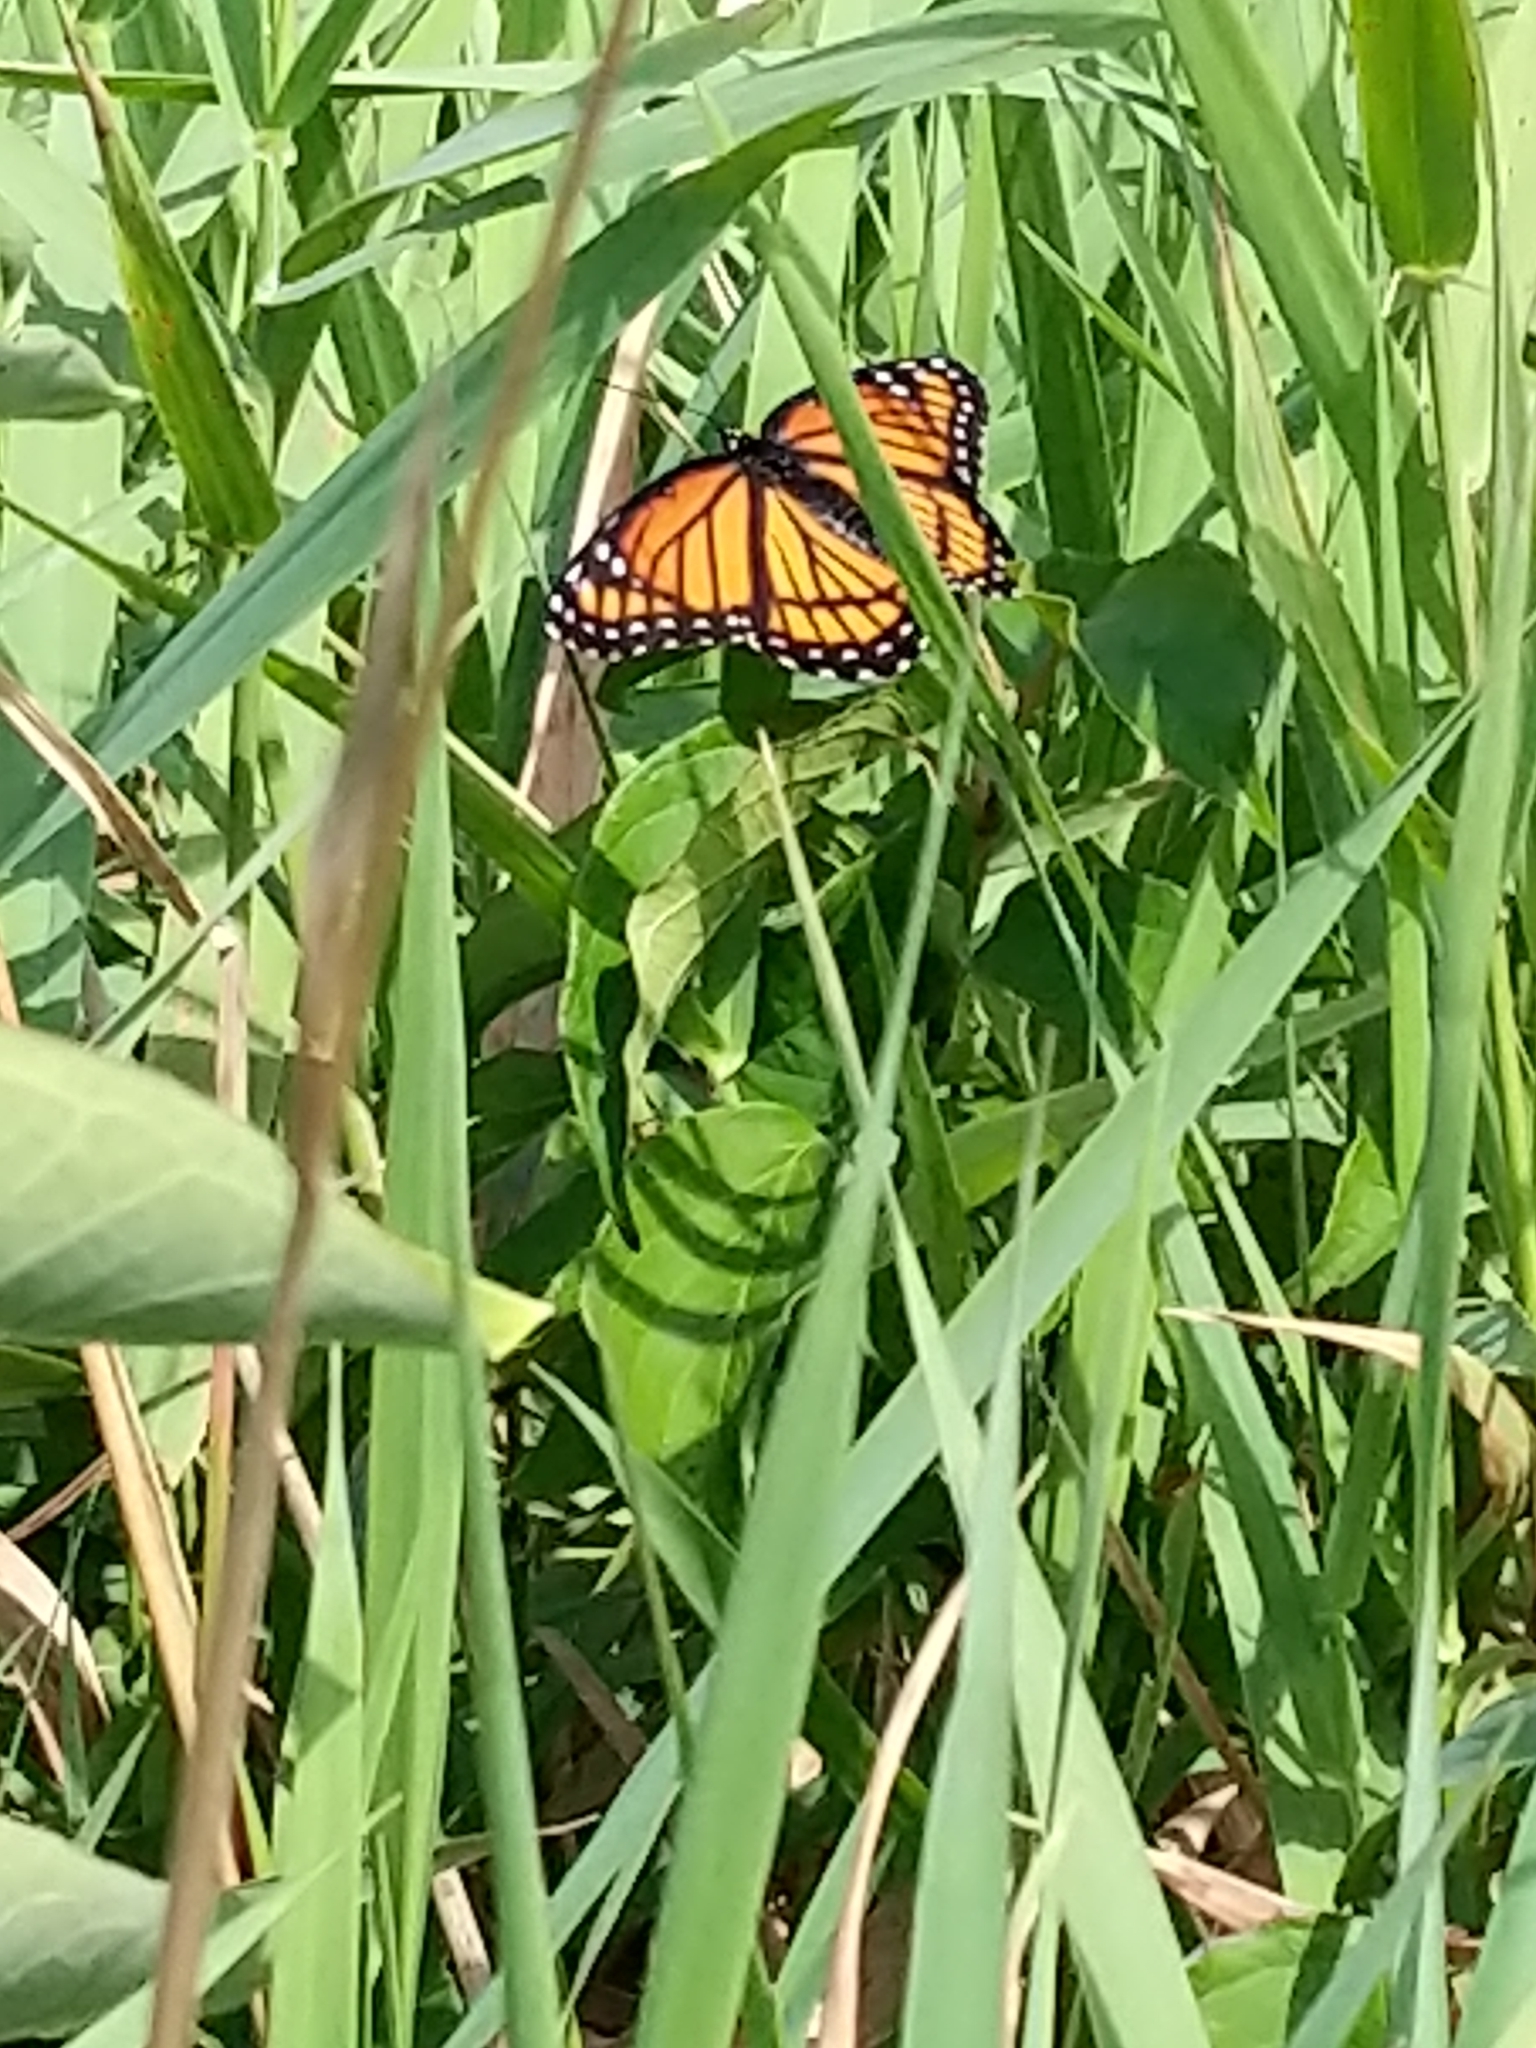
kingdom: Animalia
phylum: Arthropoda
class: Insecta
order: Lepidoptera
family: Nymphalidae
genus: Limenitis
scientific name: Limenitis archippus
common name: Viceroy
